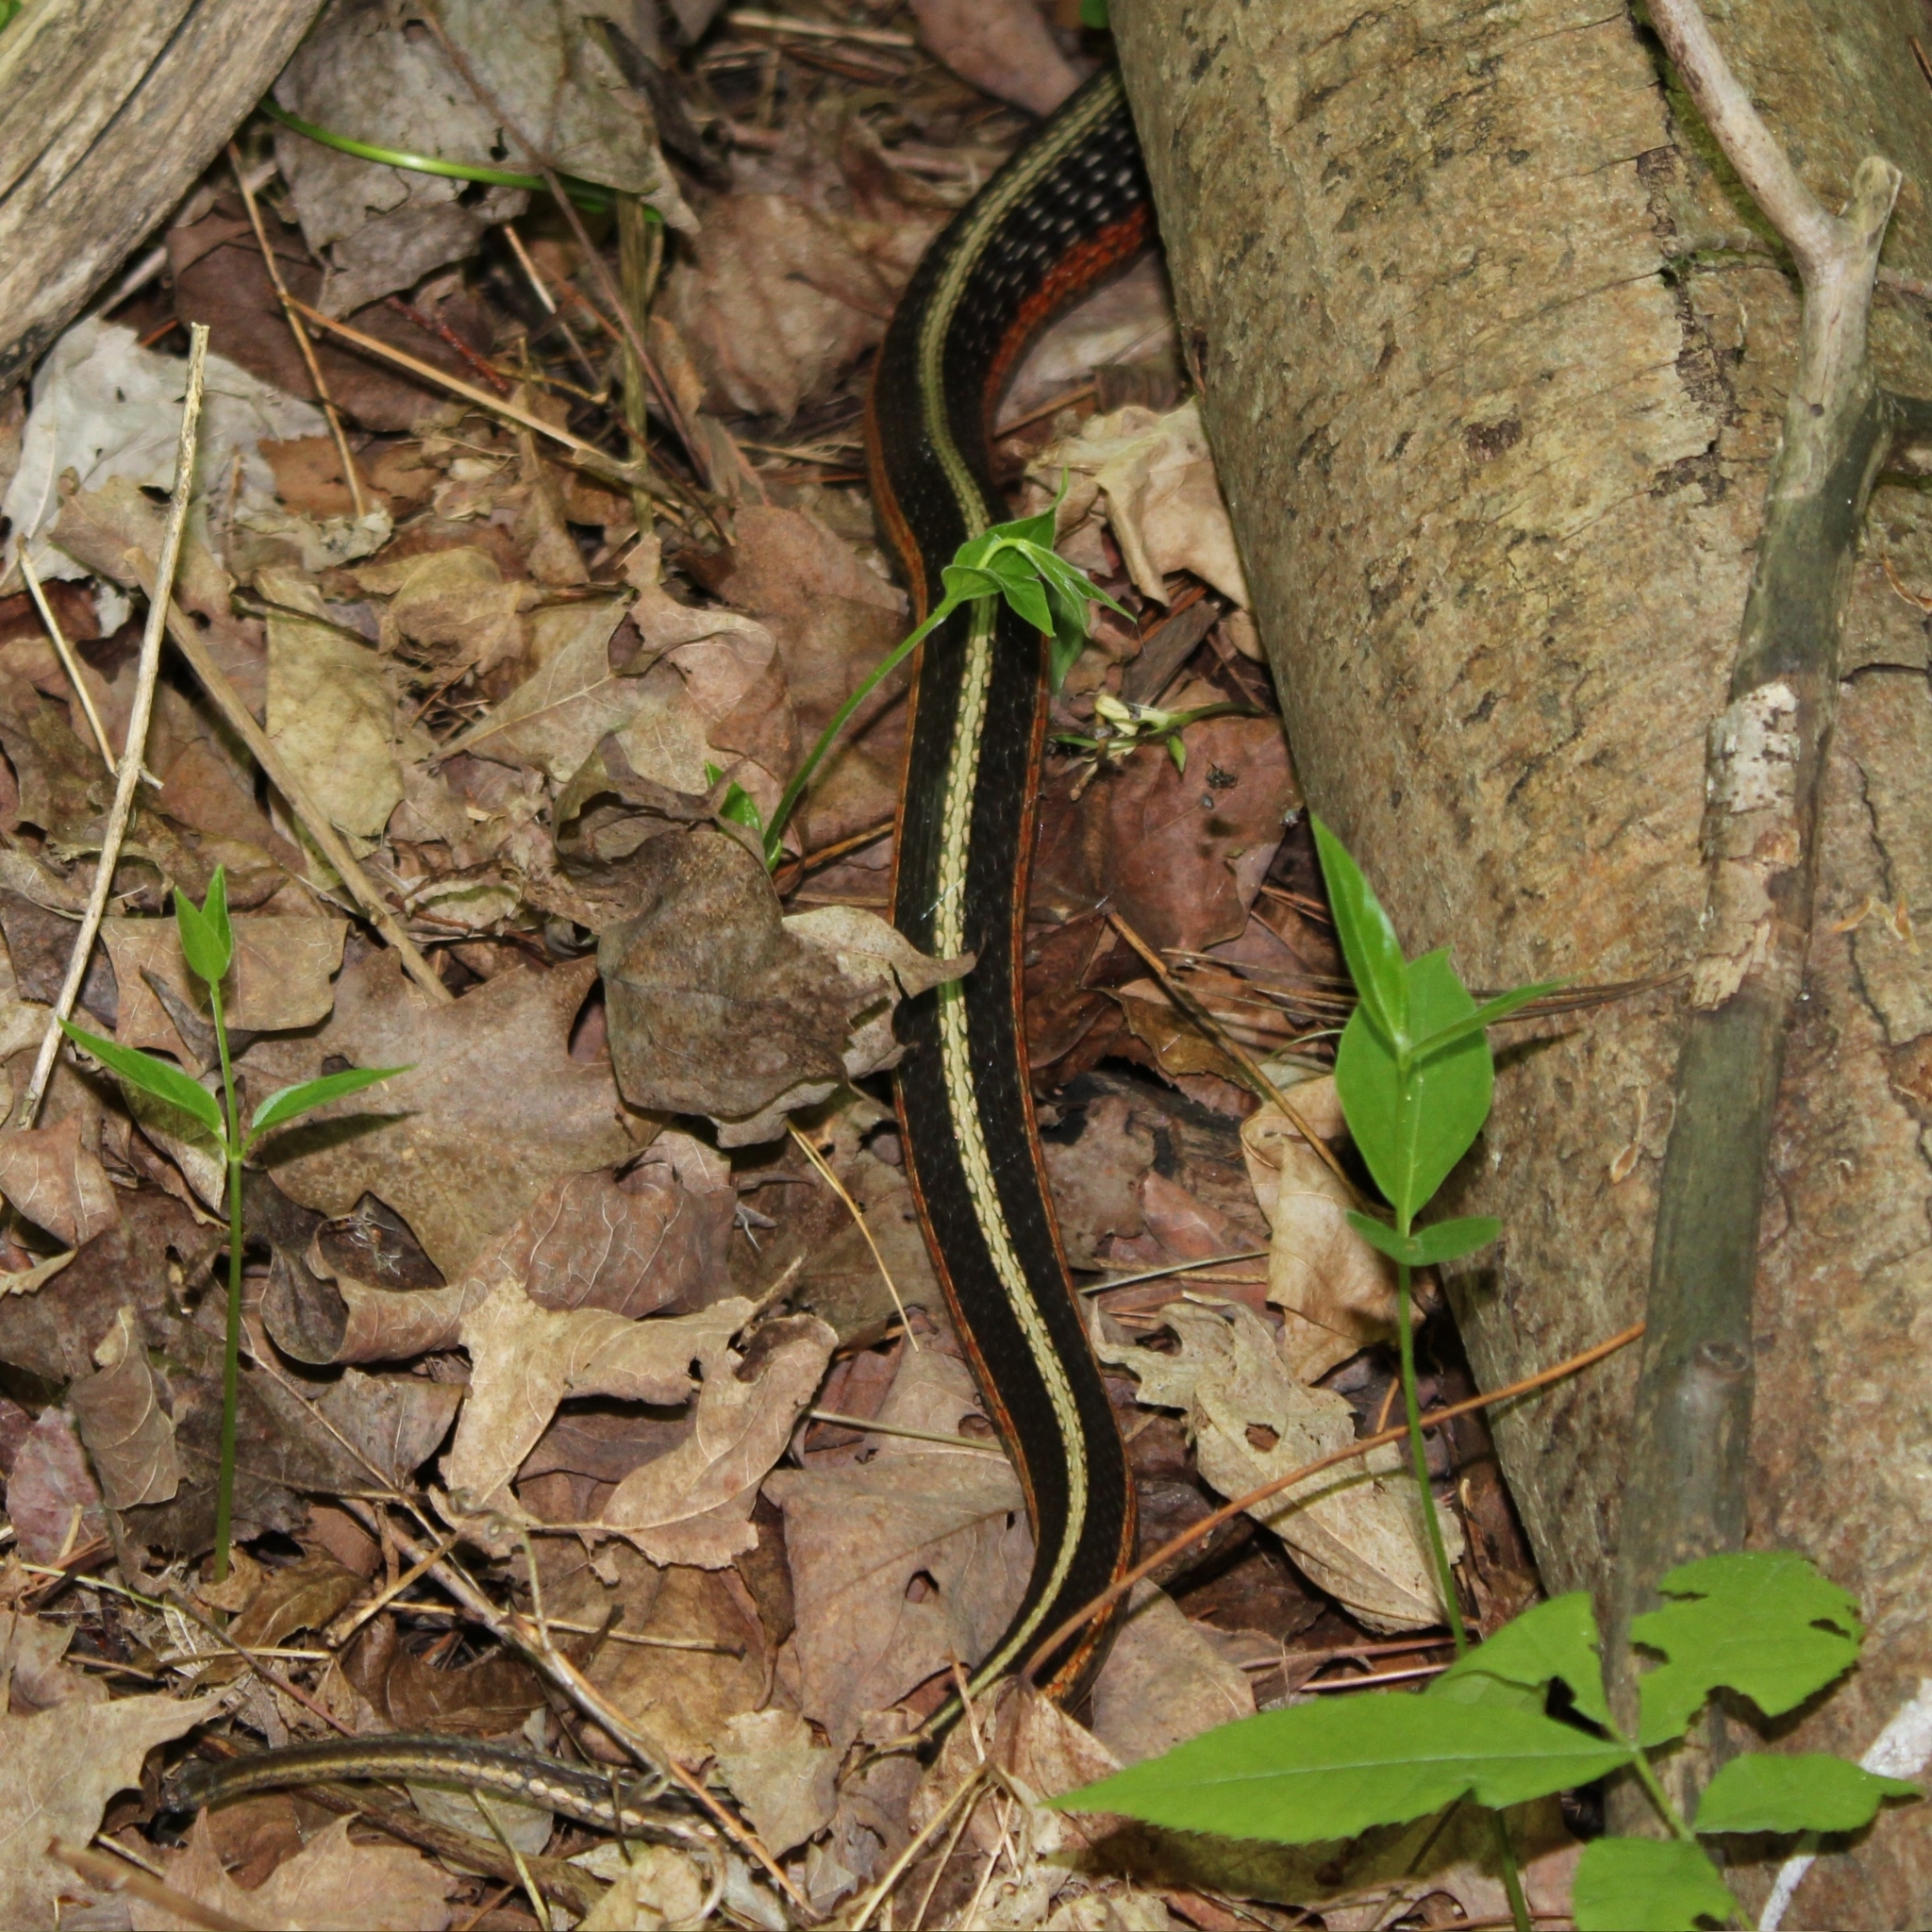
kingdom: Animalia
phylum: Chordata
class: Squamata
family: Colubridae
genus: Thamnophis
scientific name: Thamnophis sirtalis
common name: Common garter snake
